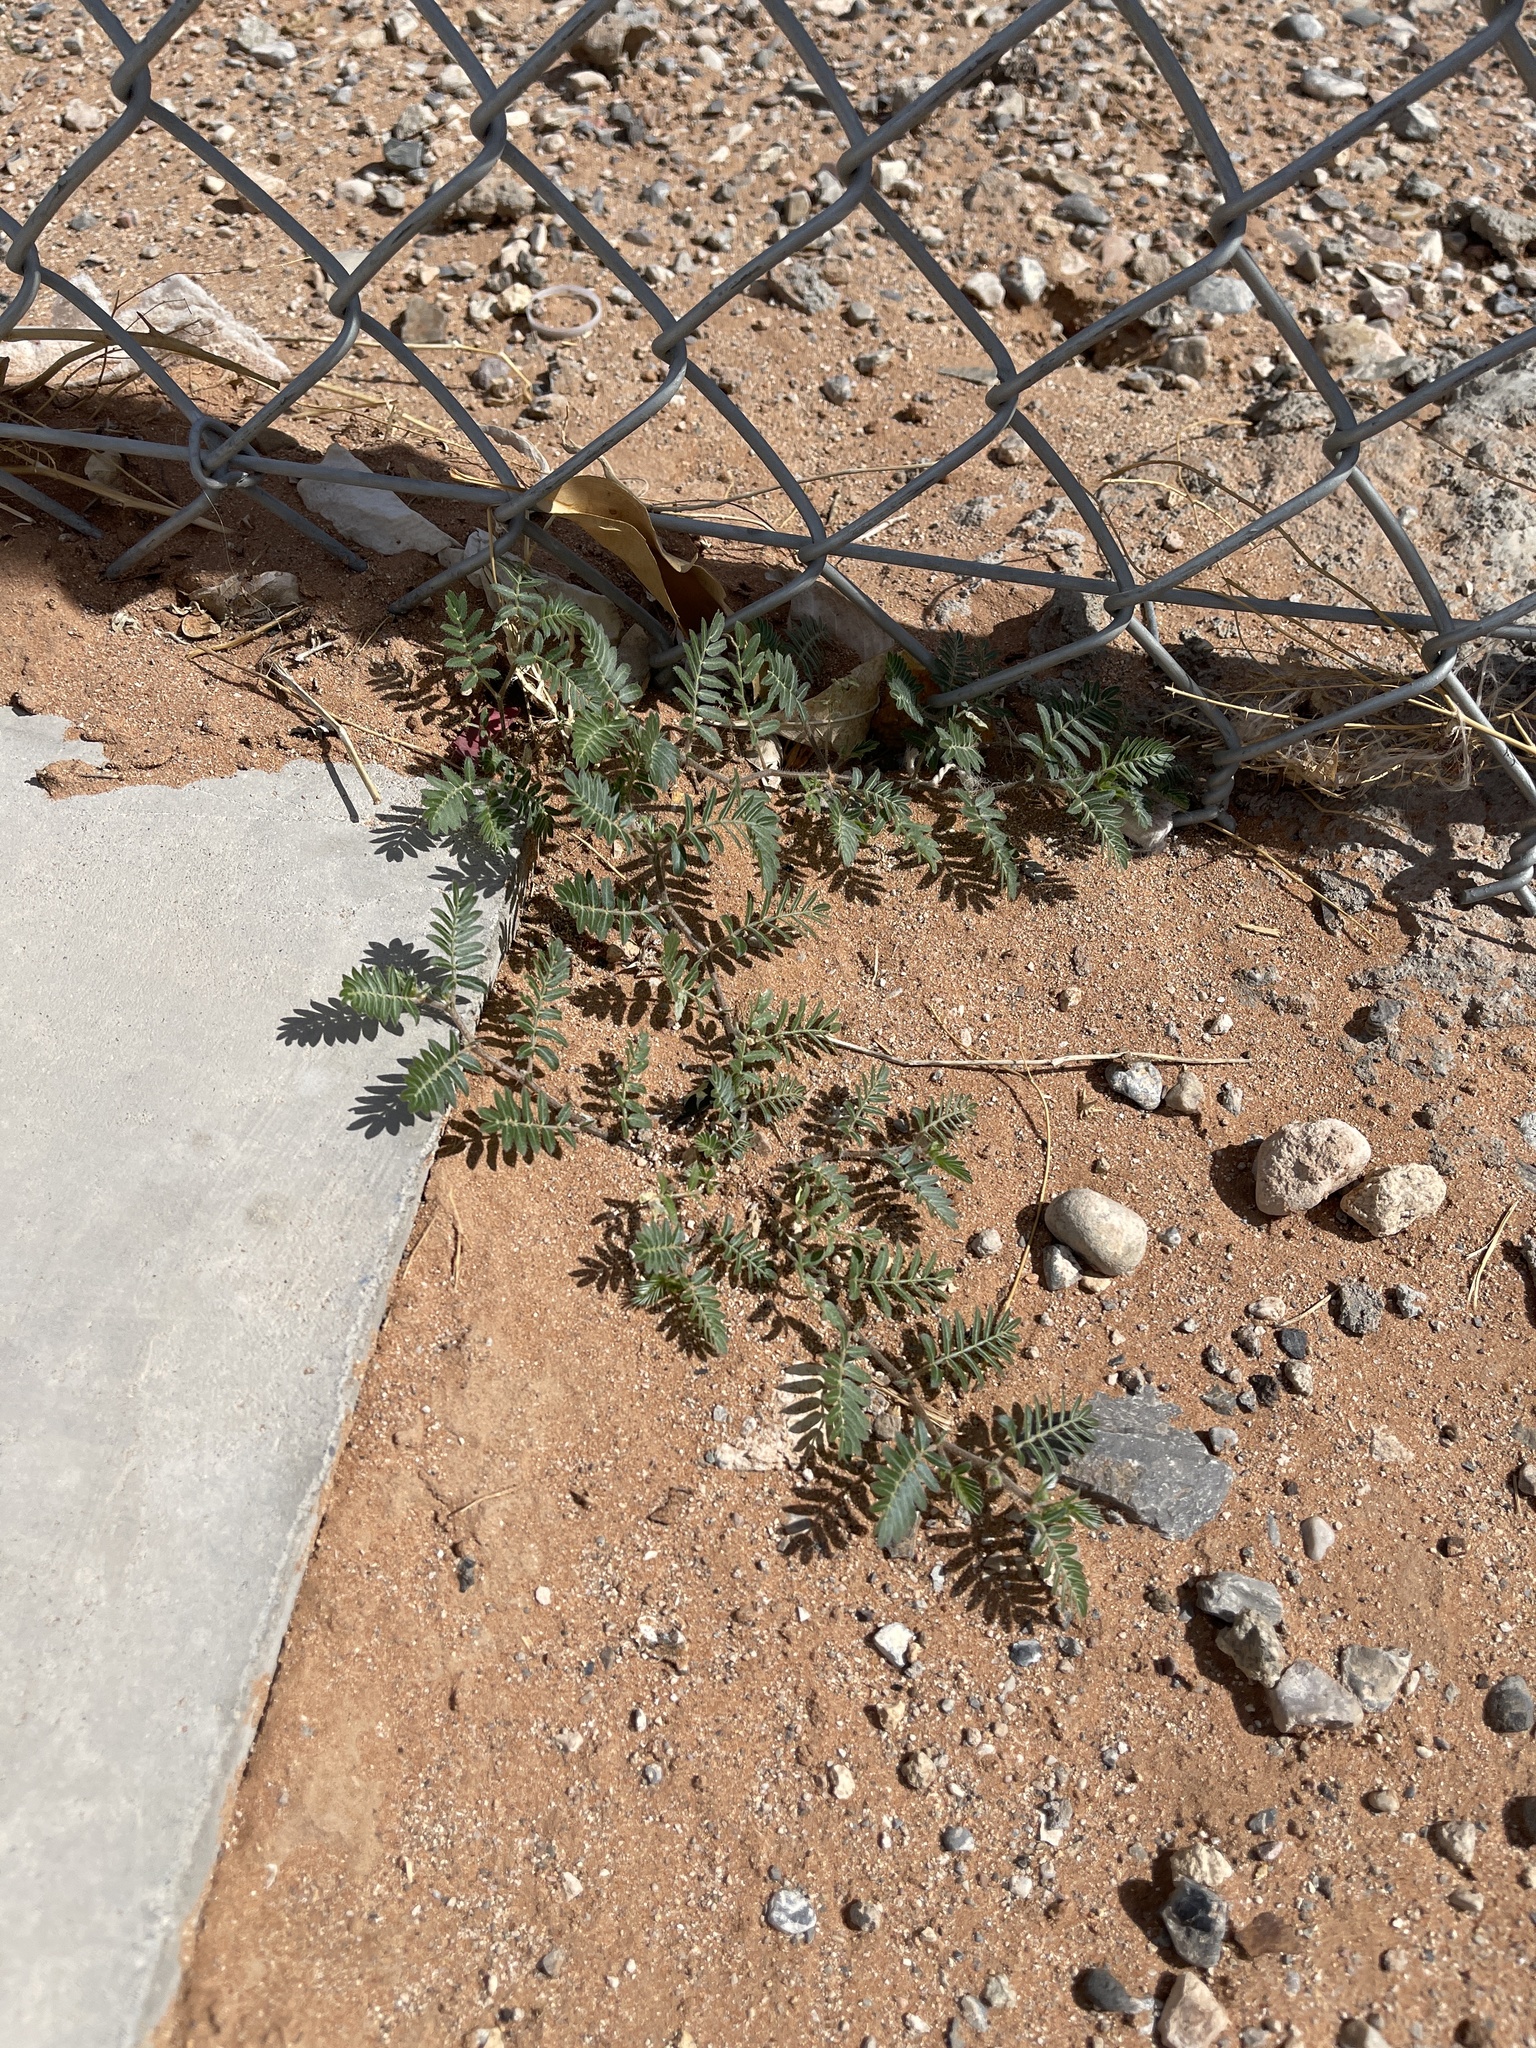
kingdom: Plantae
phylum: Tracheophyta
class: Magnoliopsida
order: Zygophyllales
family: Zygophyllaceae
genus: Tribulus
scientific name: Tribulus terrestris
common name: Puncturevine
